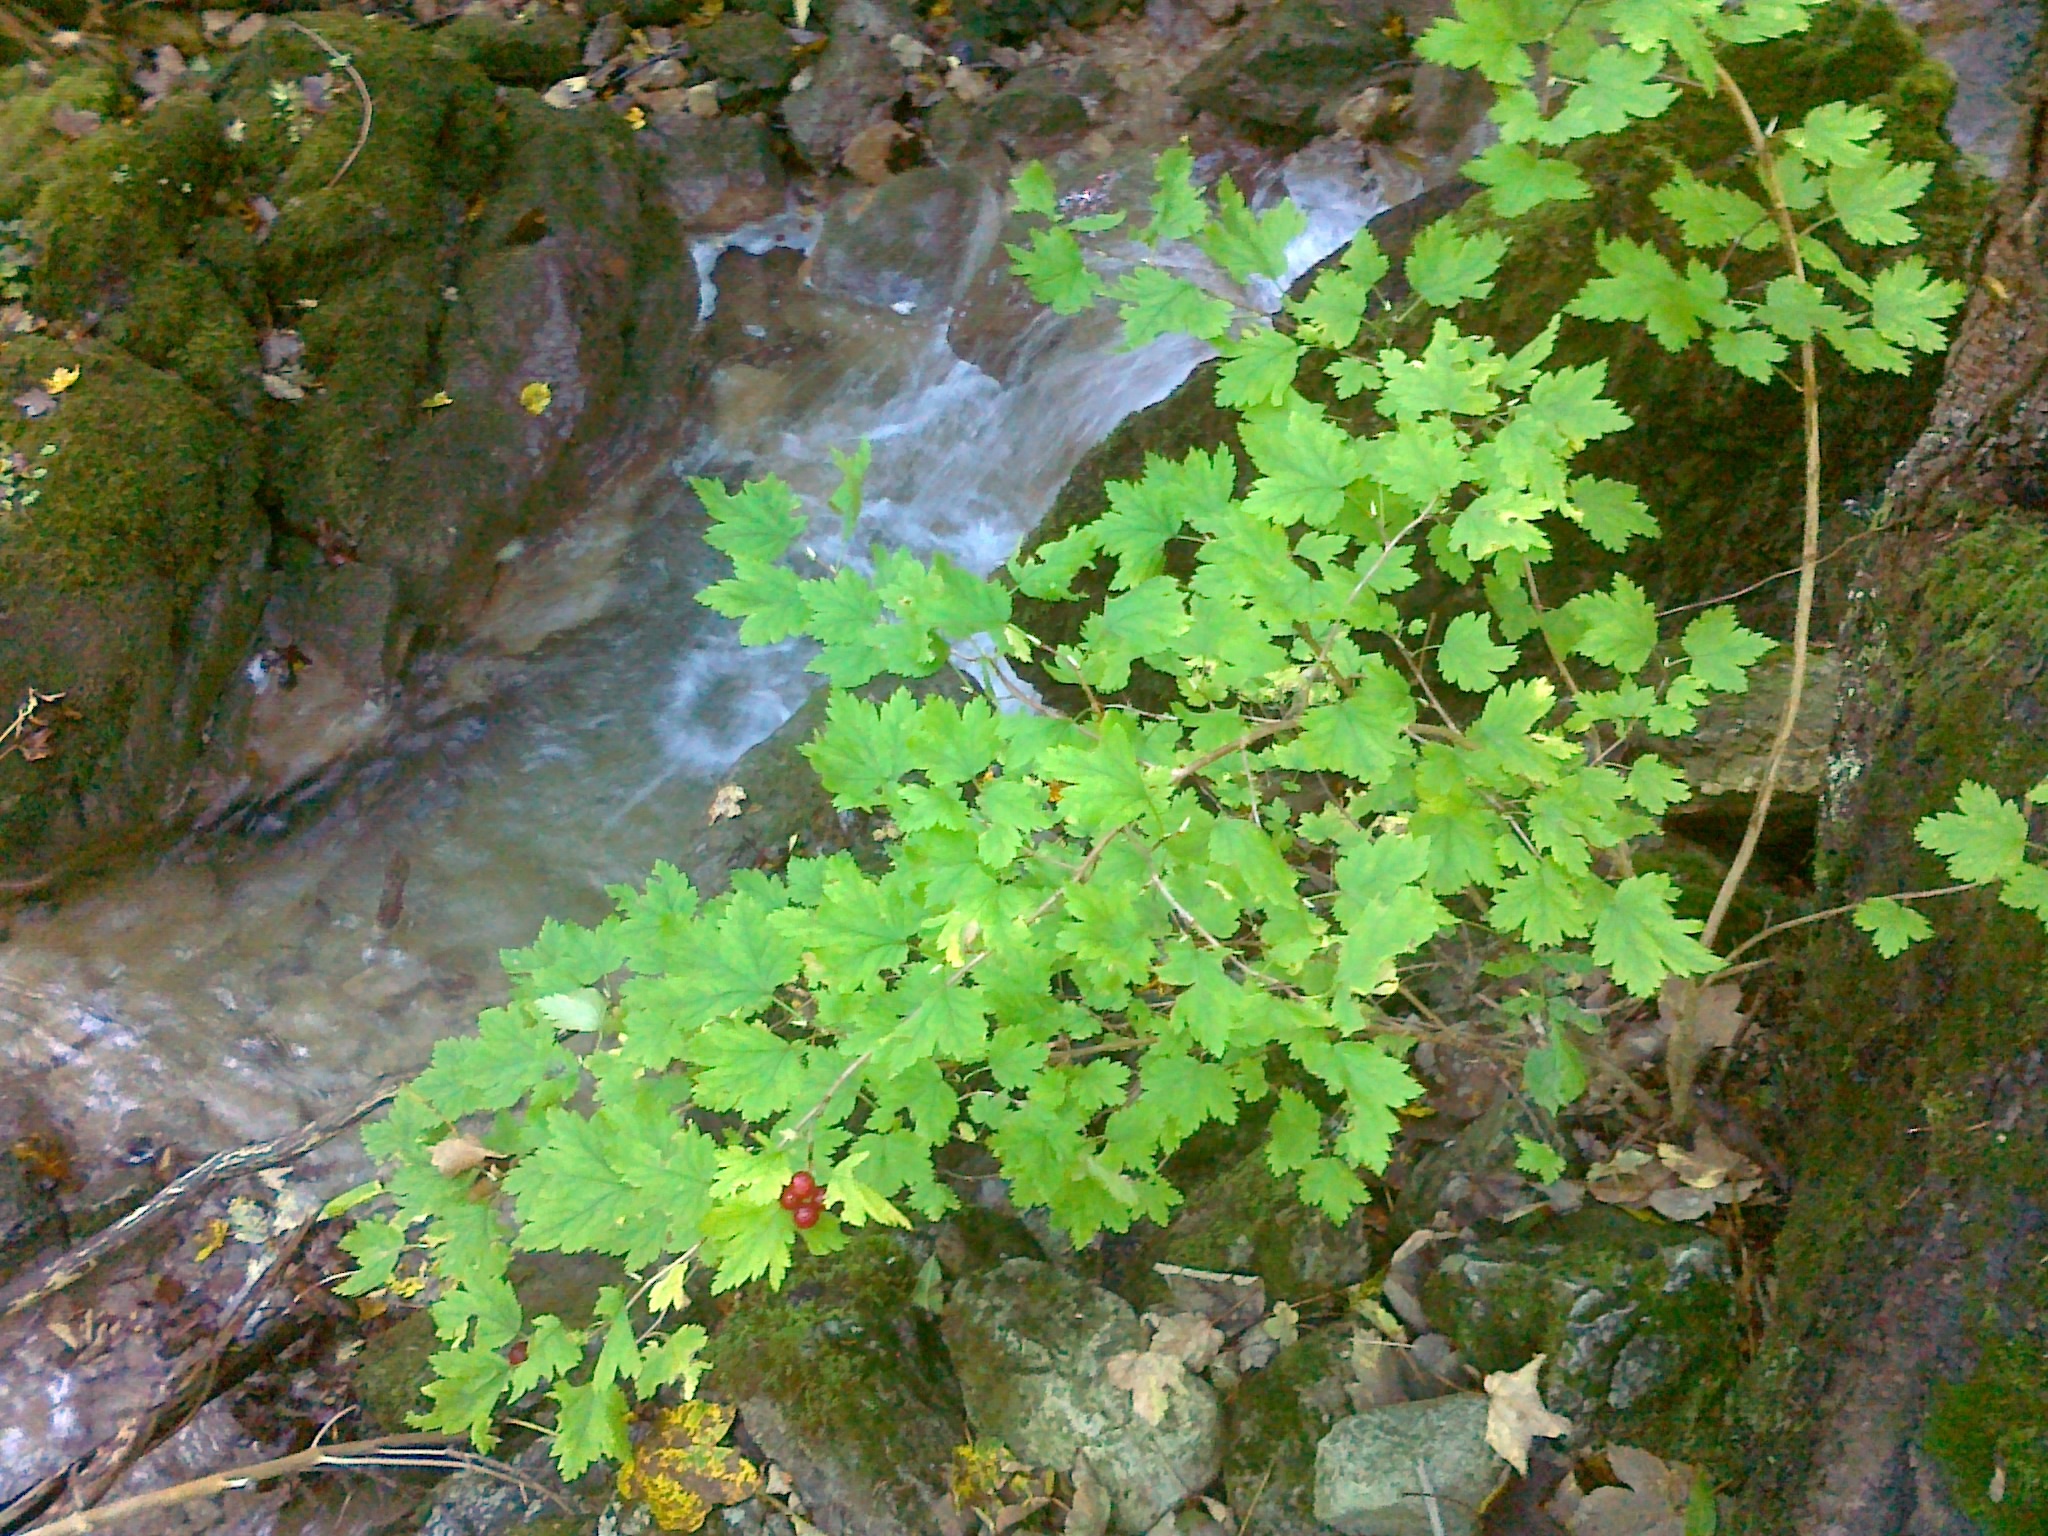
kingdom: Plantae
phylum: Tracheophyta
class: Magnoliopsida
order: Saxifragales
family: Grossulariaceae
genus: Ribes
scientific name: Ribes alpinum
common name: Alpine currant
